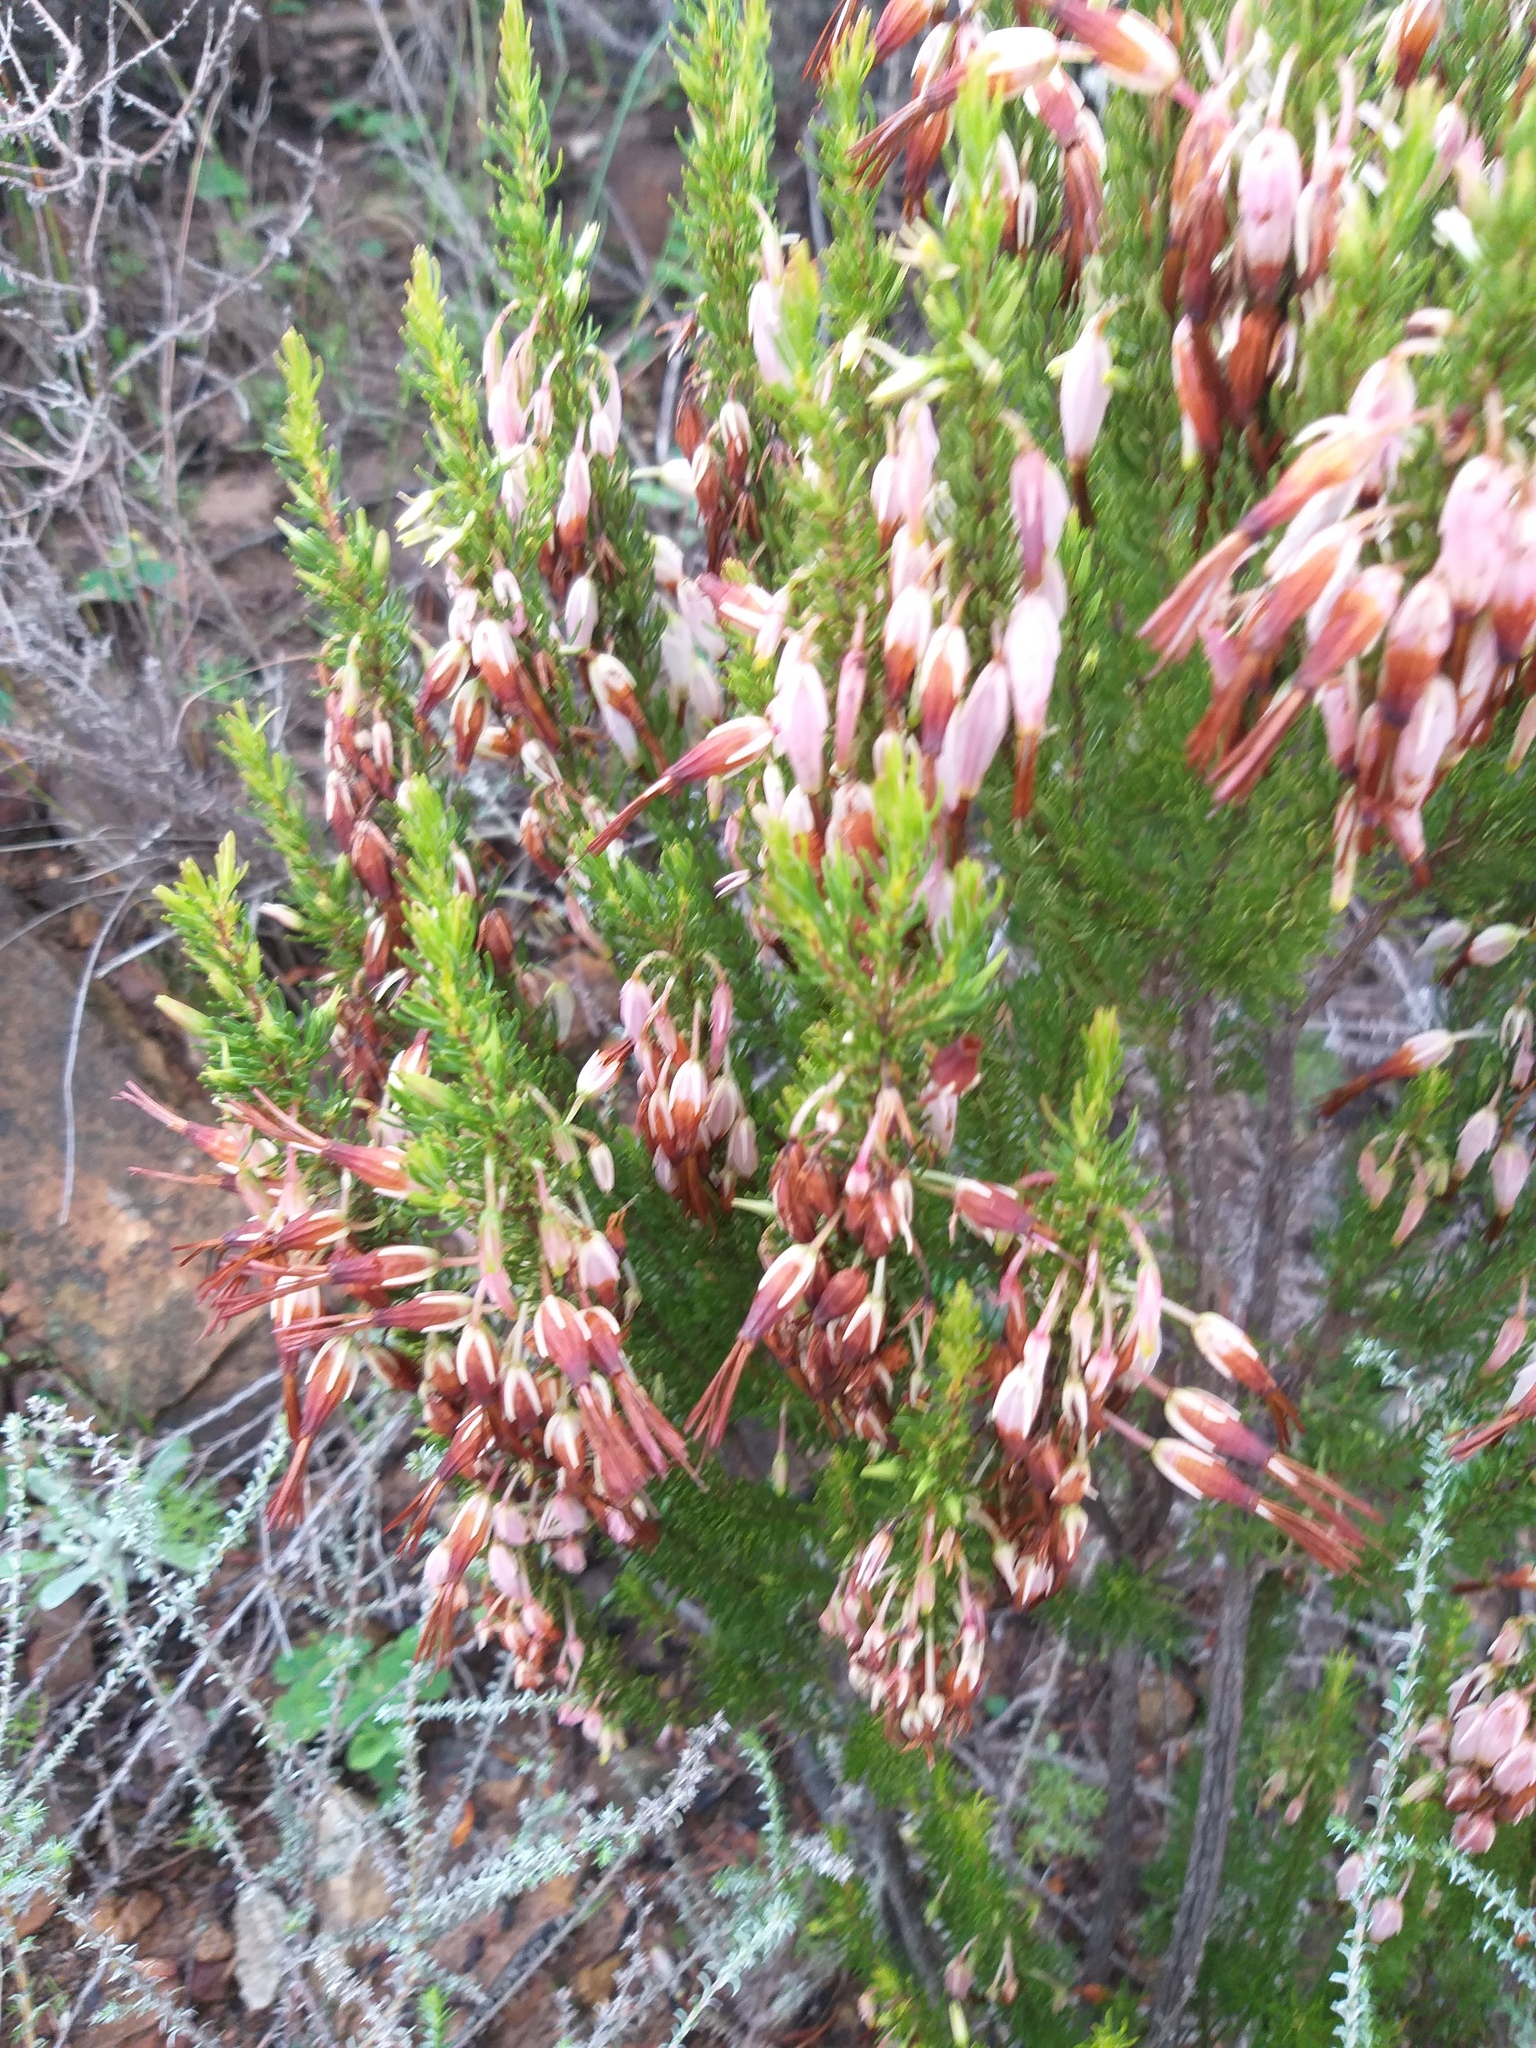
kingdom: Plantae
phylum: Tracheophyta
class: Magnoliopsida
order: Ericales
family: Ericaceae
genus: Erica
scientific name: Erica plukenetii
